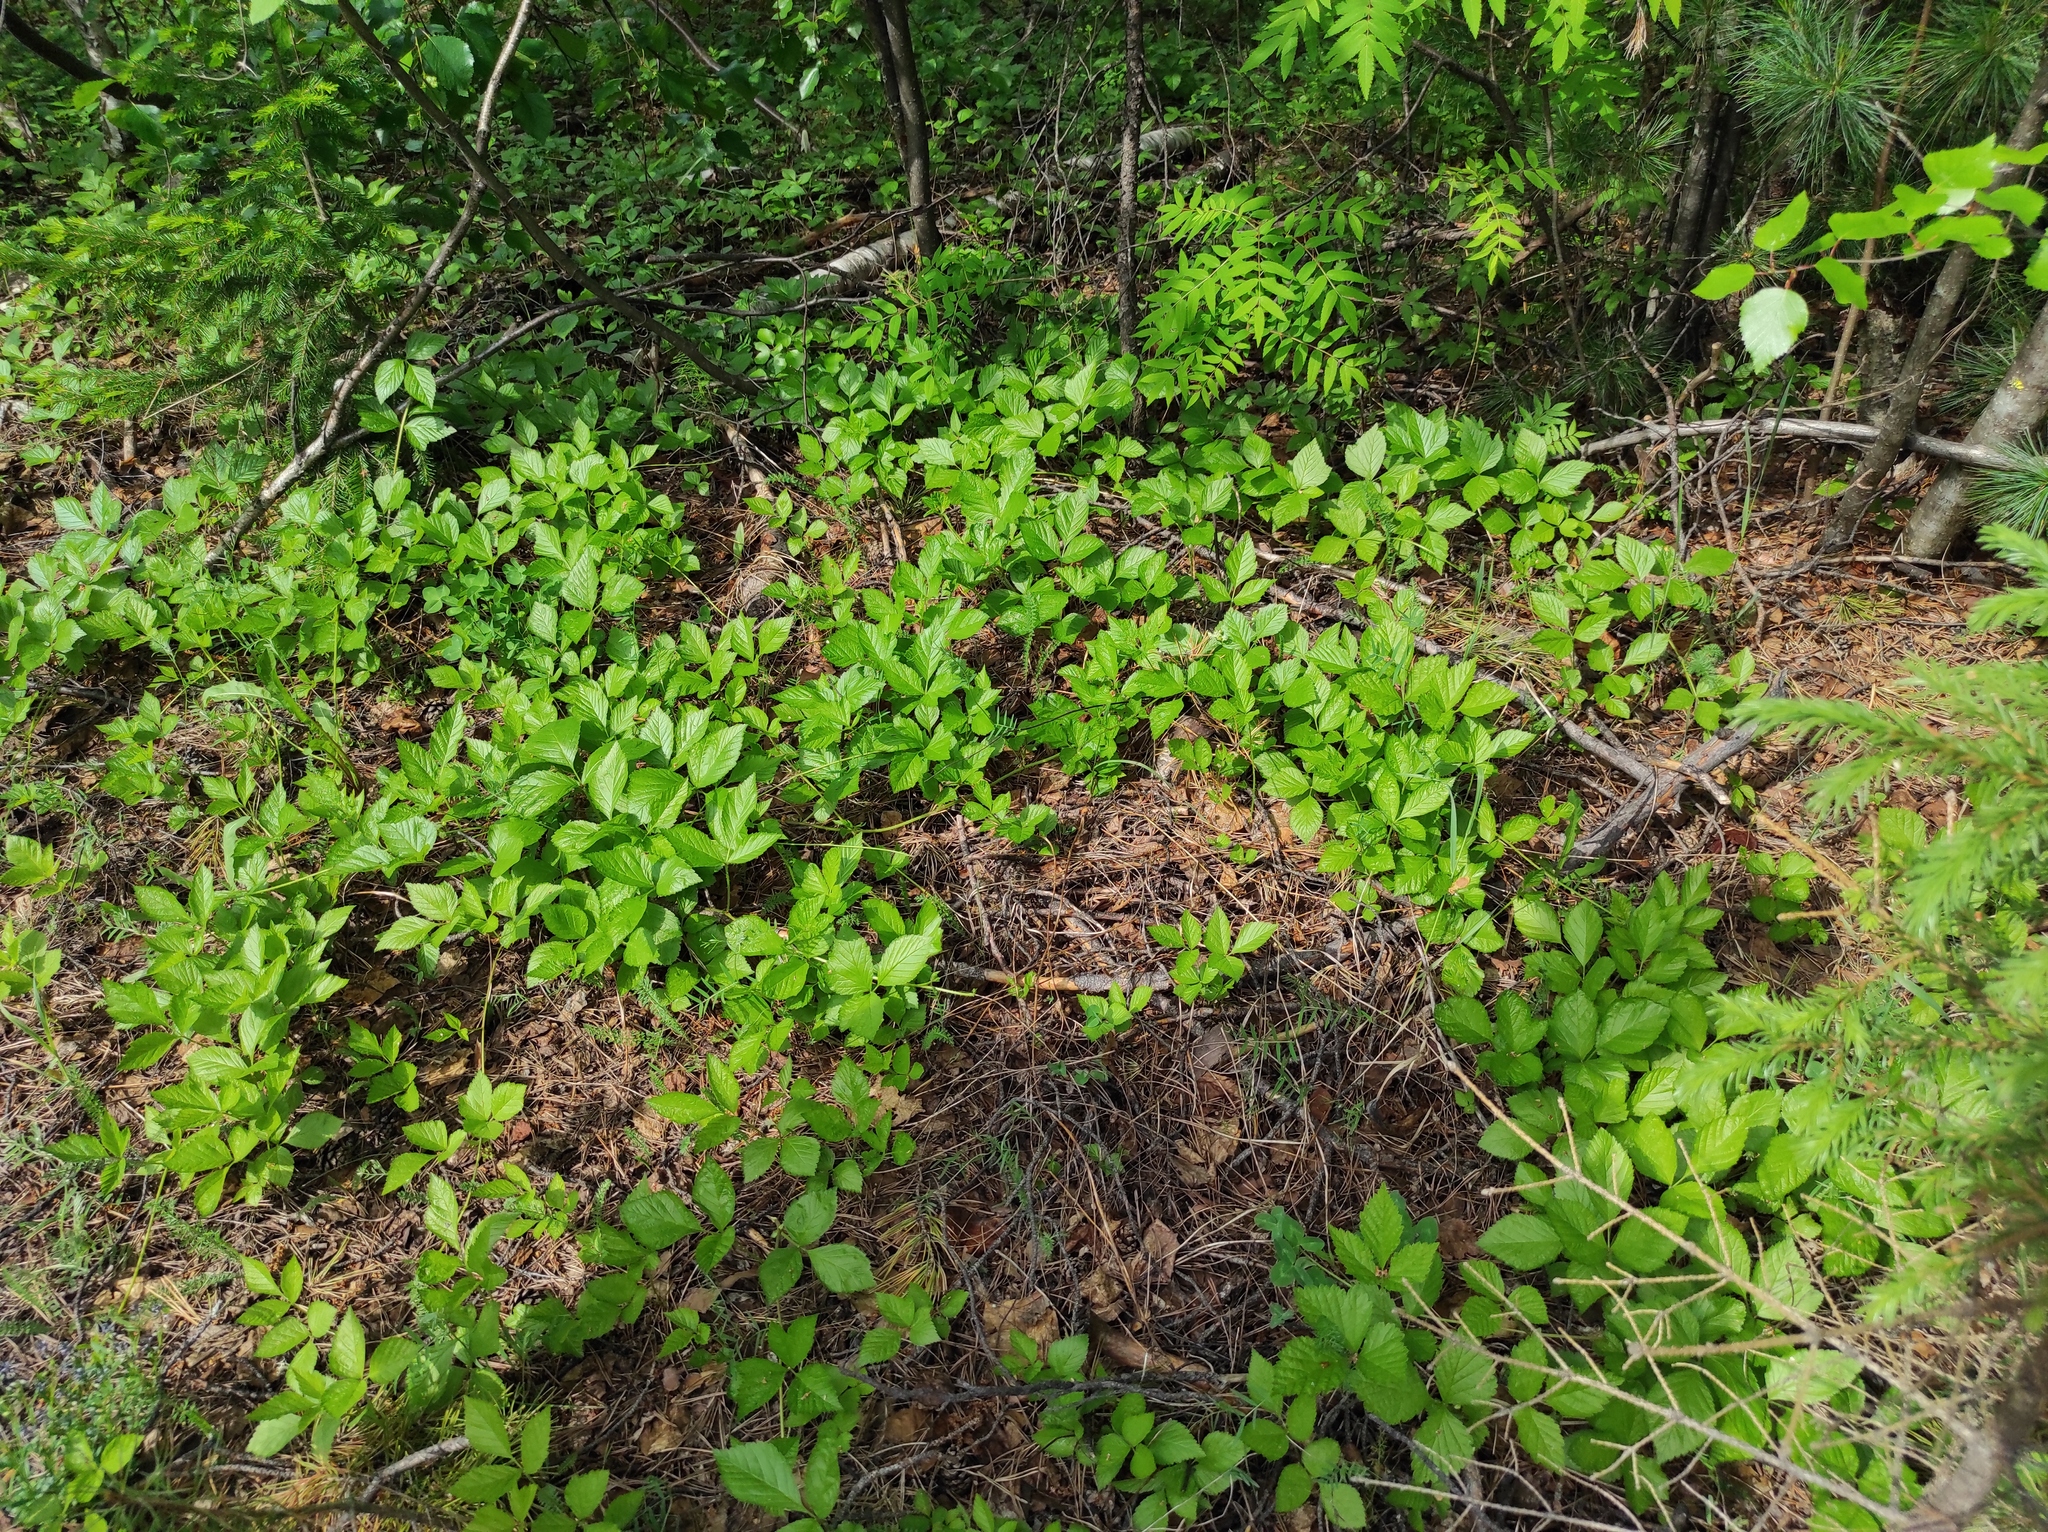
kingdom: Plantae
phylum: Tracheophyta
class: Pinopsida
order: Pinales
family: Pinaceae
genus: Pinus
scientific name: Pinus sibirica
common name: Siberian pine
